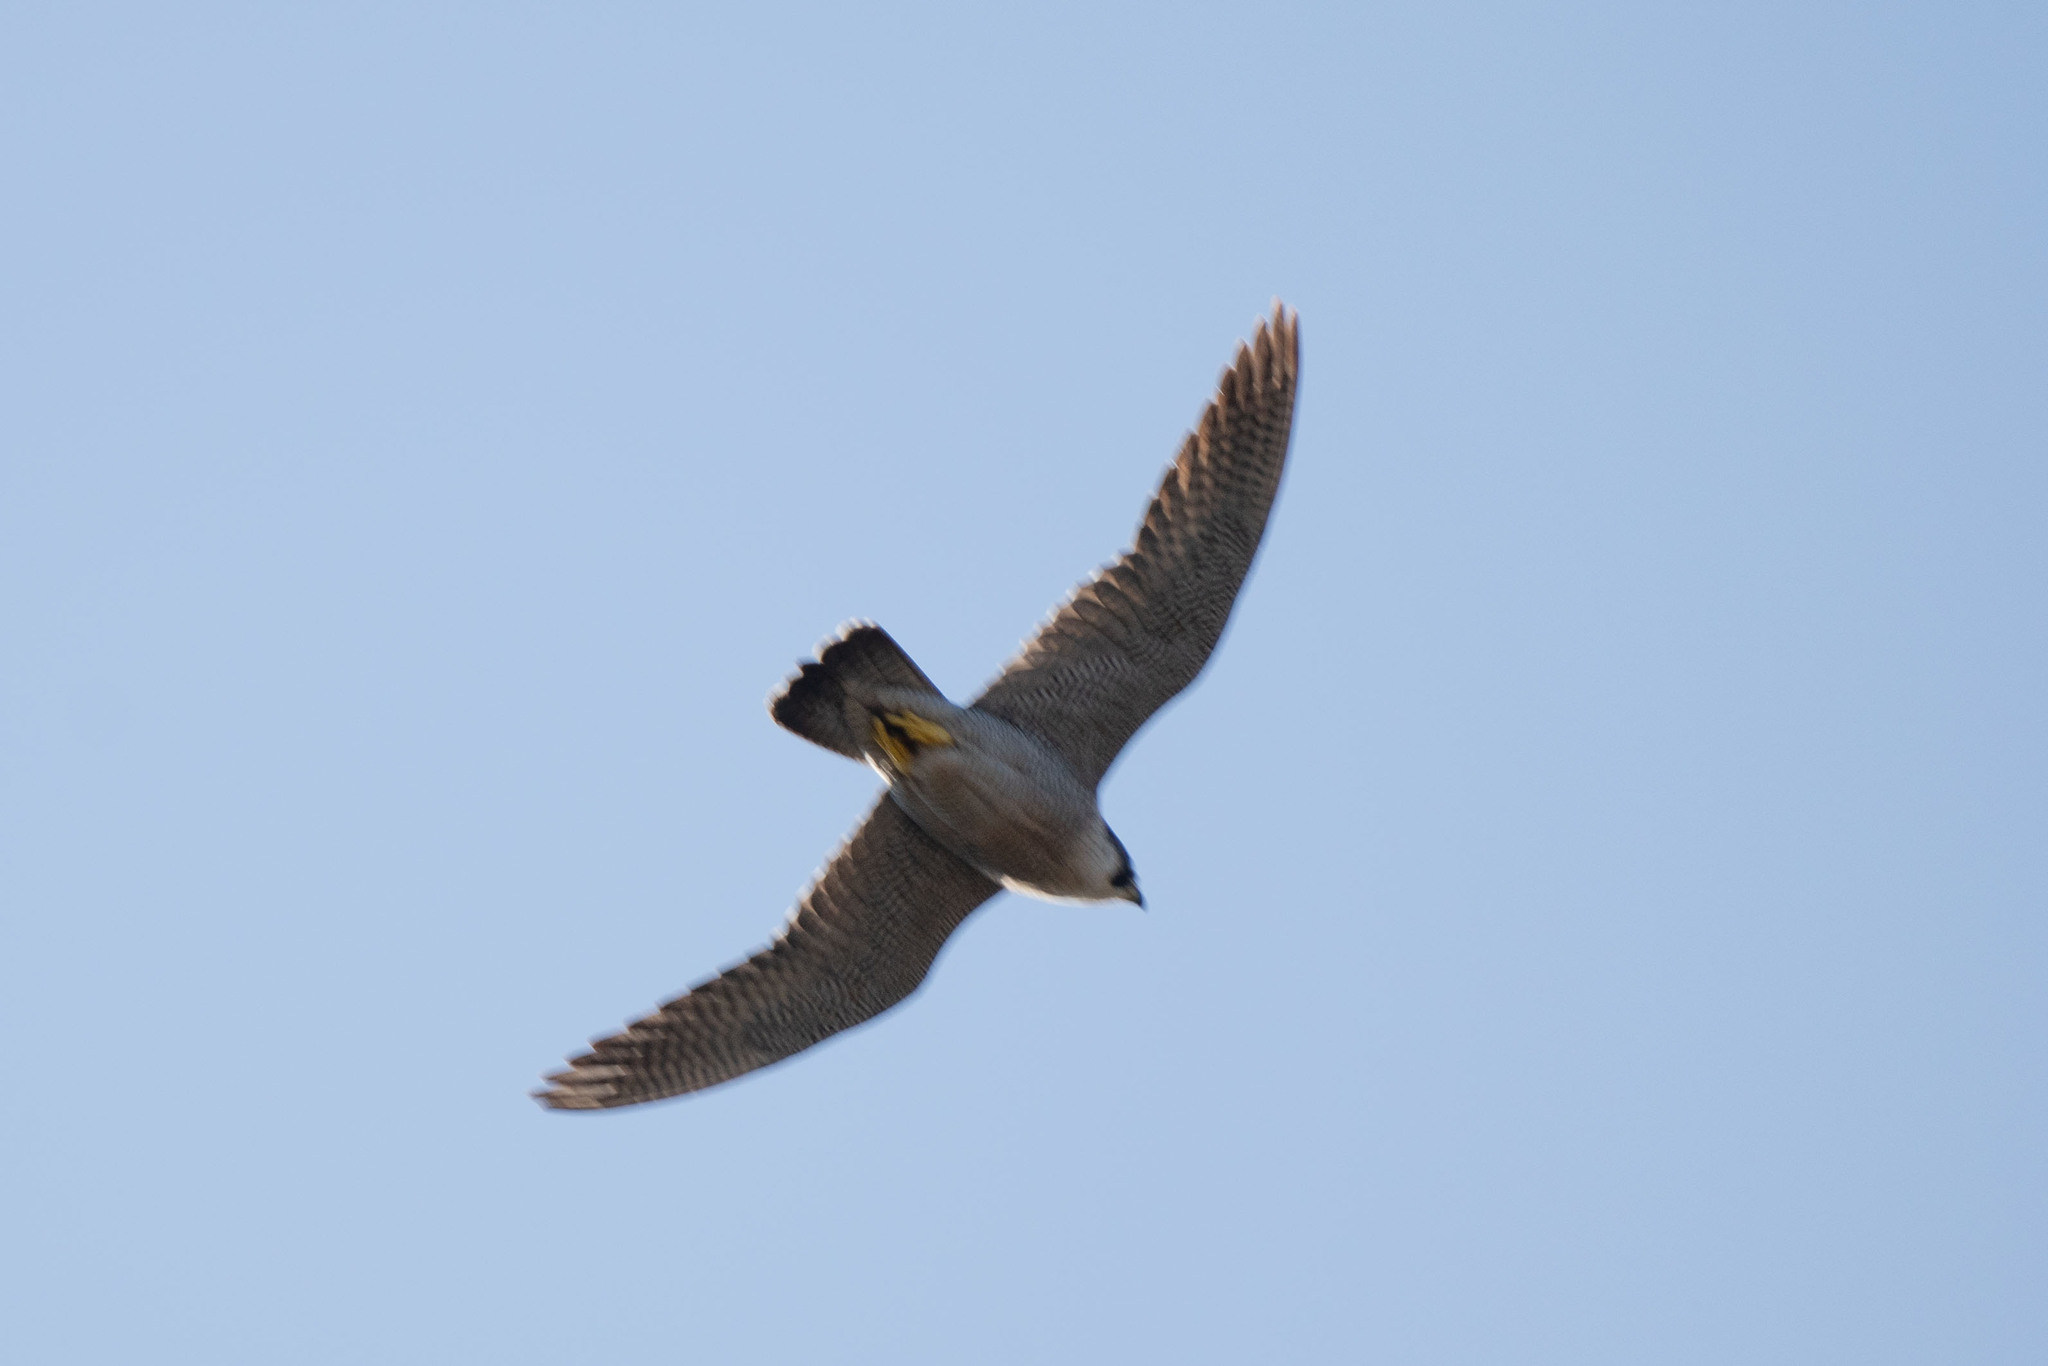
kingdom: Animalia
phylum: Chordata
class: Aves
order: Falconiformes
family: Falconidae
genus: Falco
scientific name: Falco peregrinus
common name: Peregrine falcon
